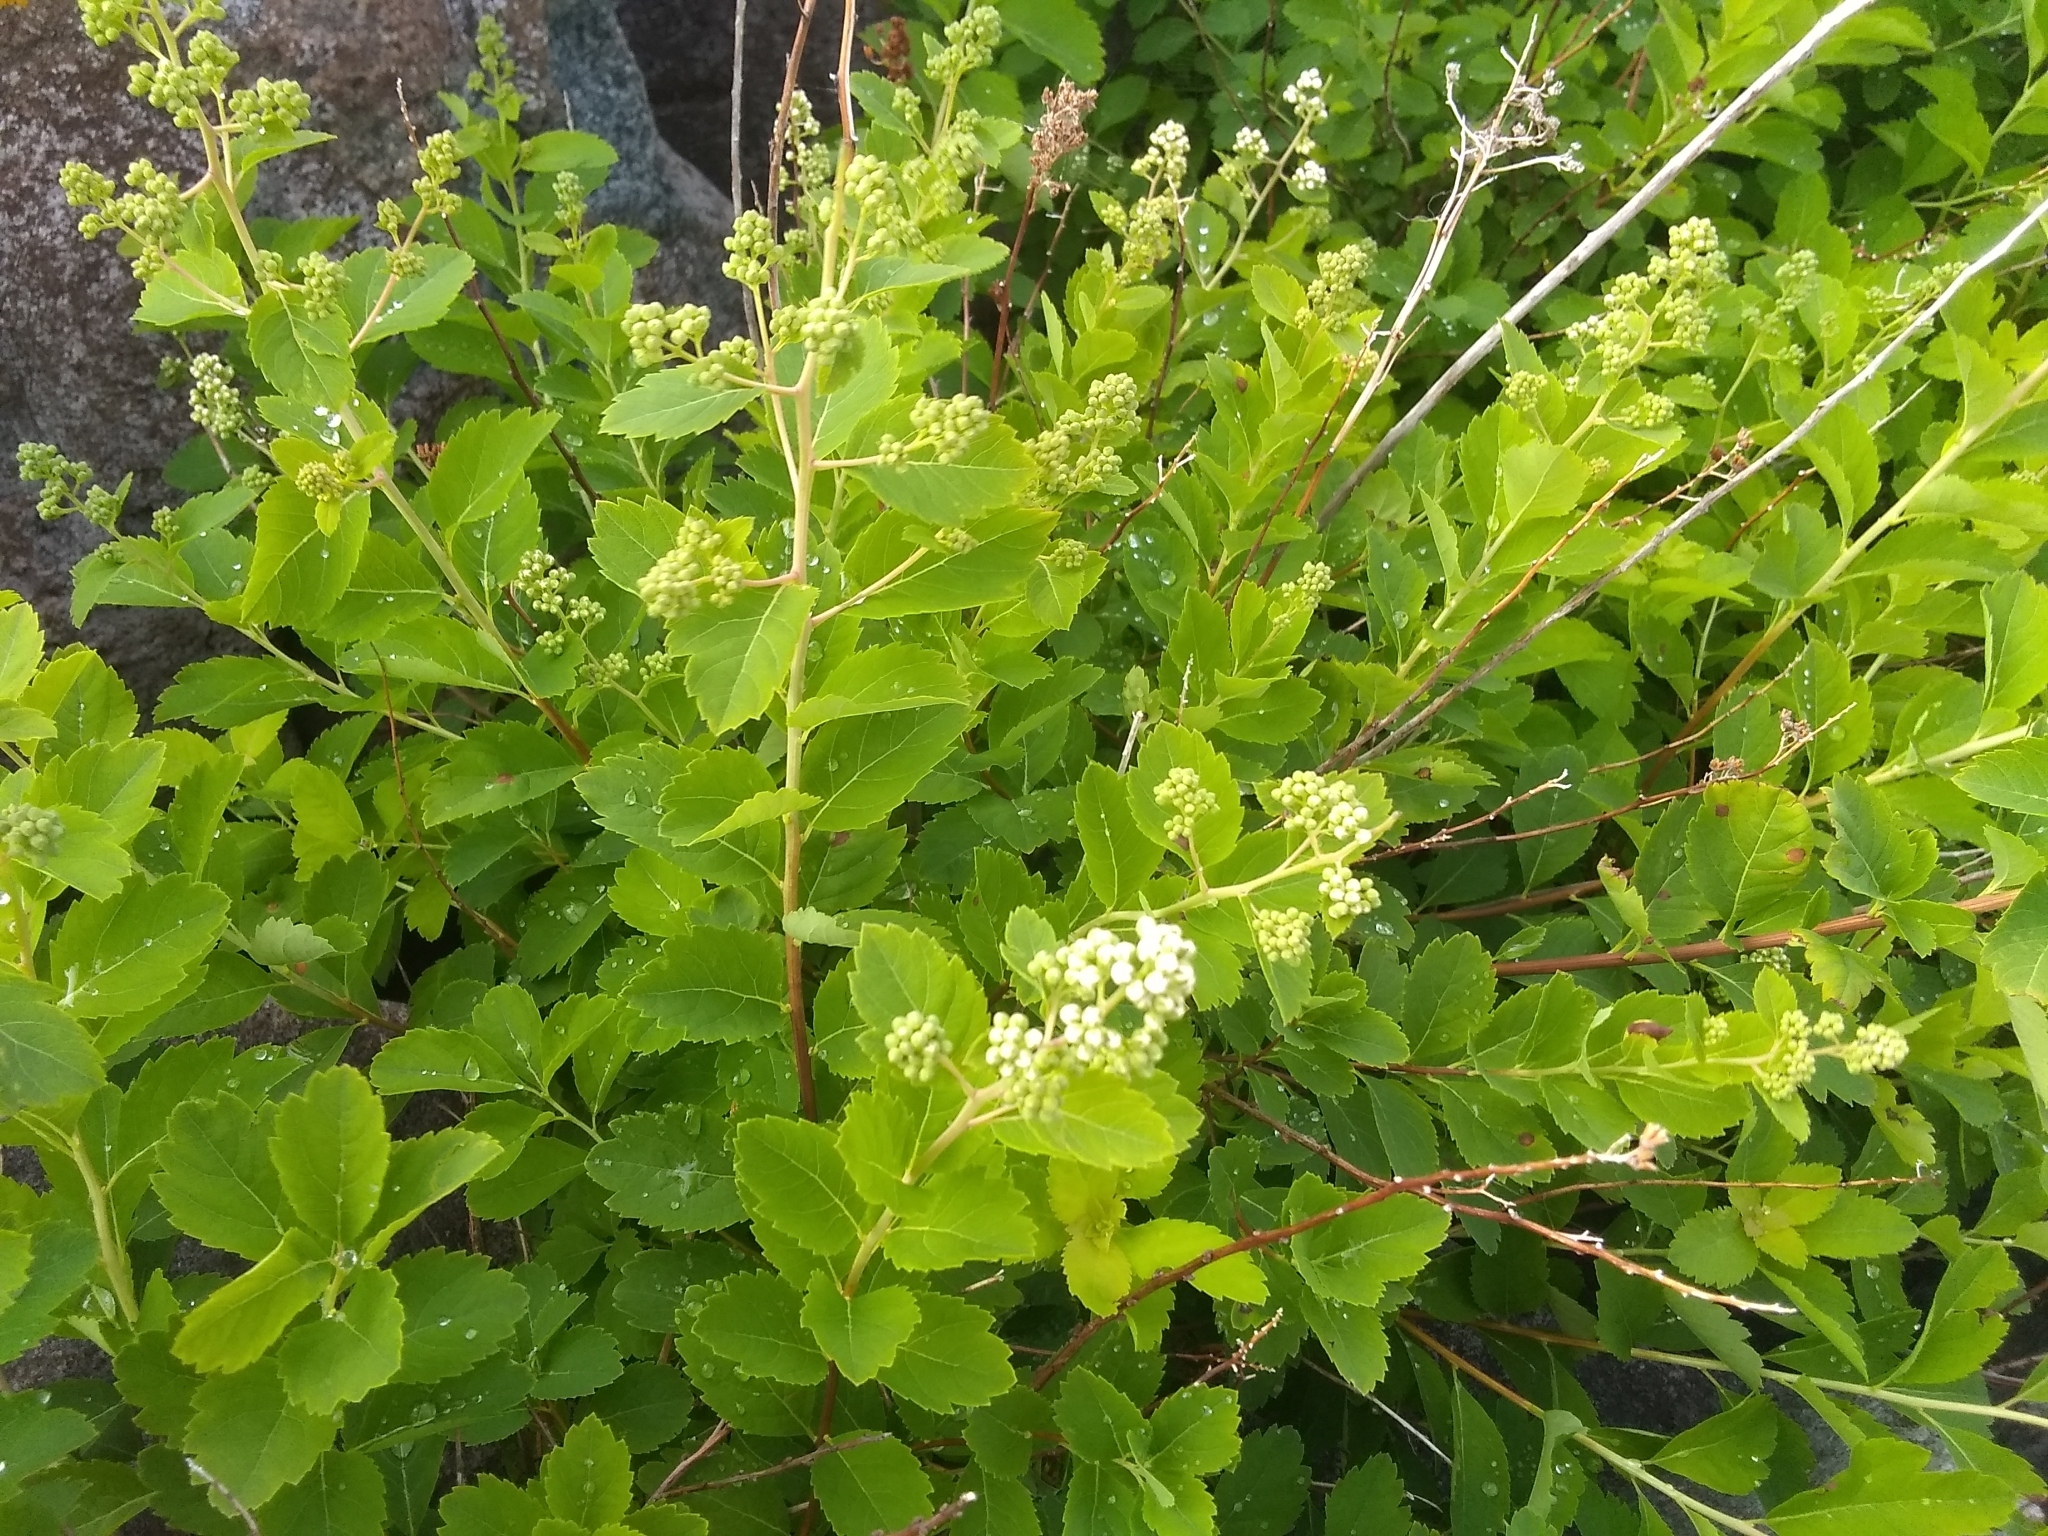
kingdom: Plantae
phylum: Tracheophyta
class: Magnoliopsida
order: Rosales
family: Rosaceae
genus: Spiraea
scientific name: Spiraea alba
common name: Pale bridewort
